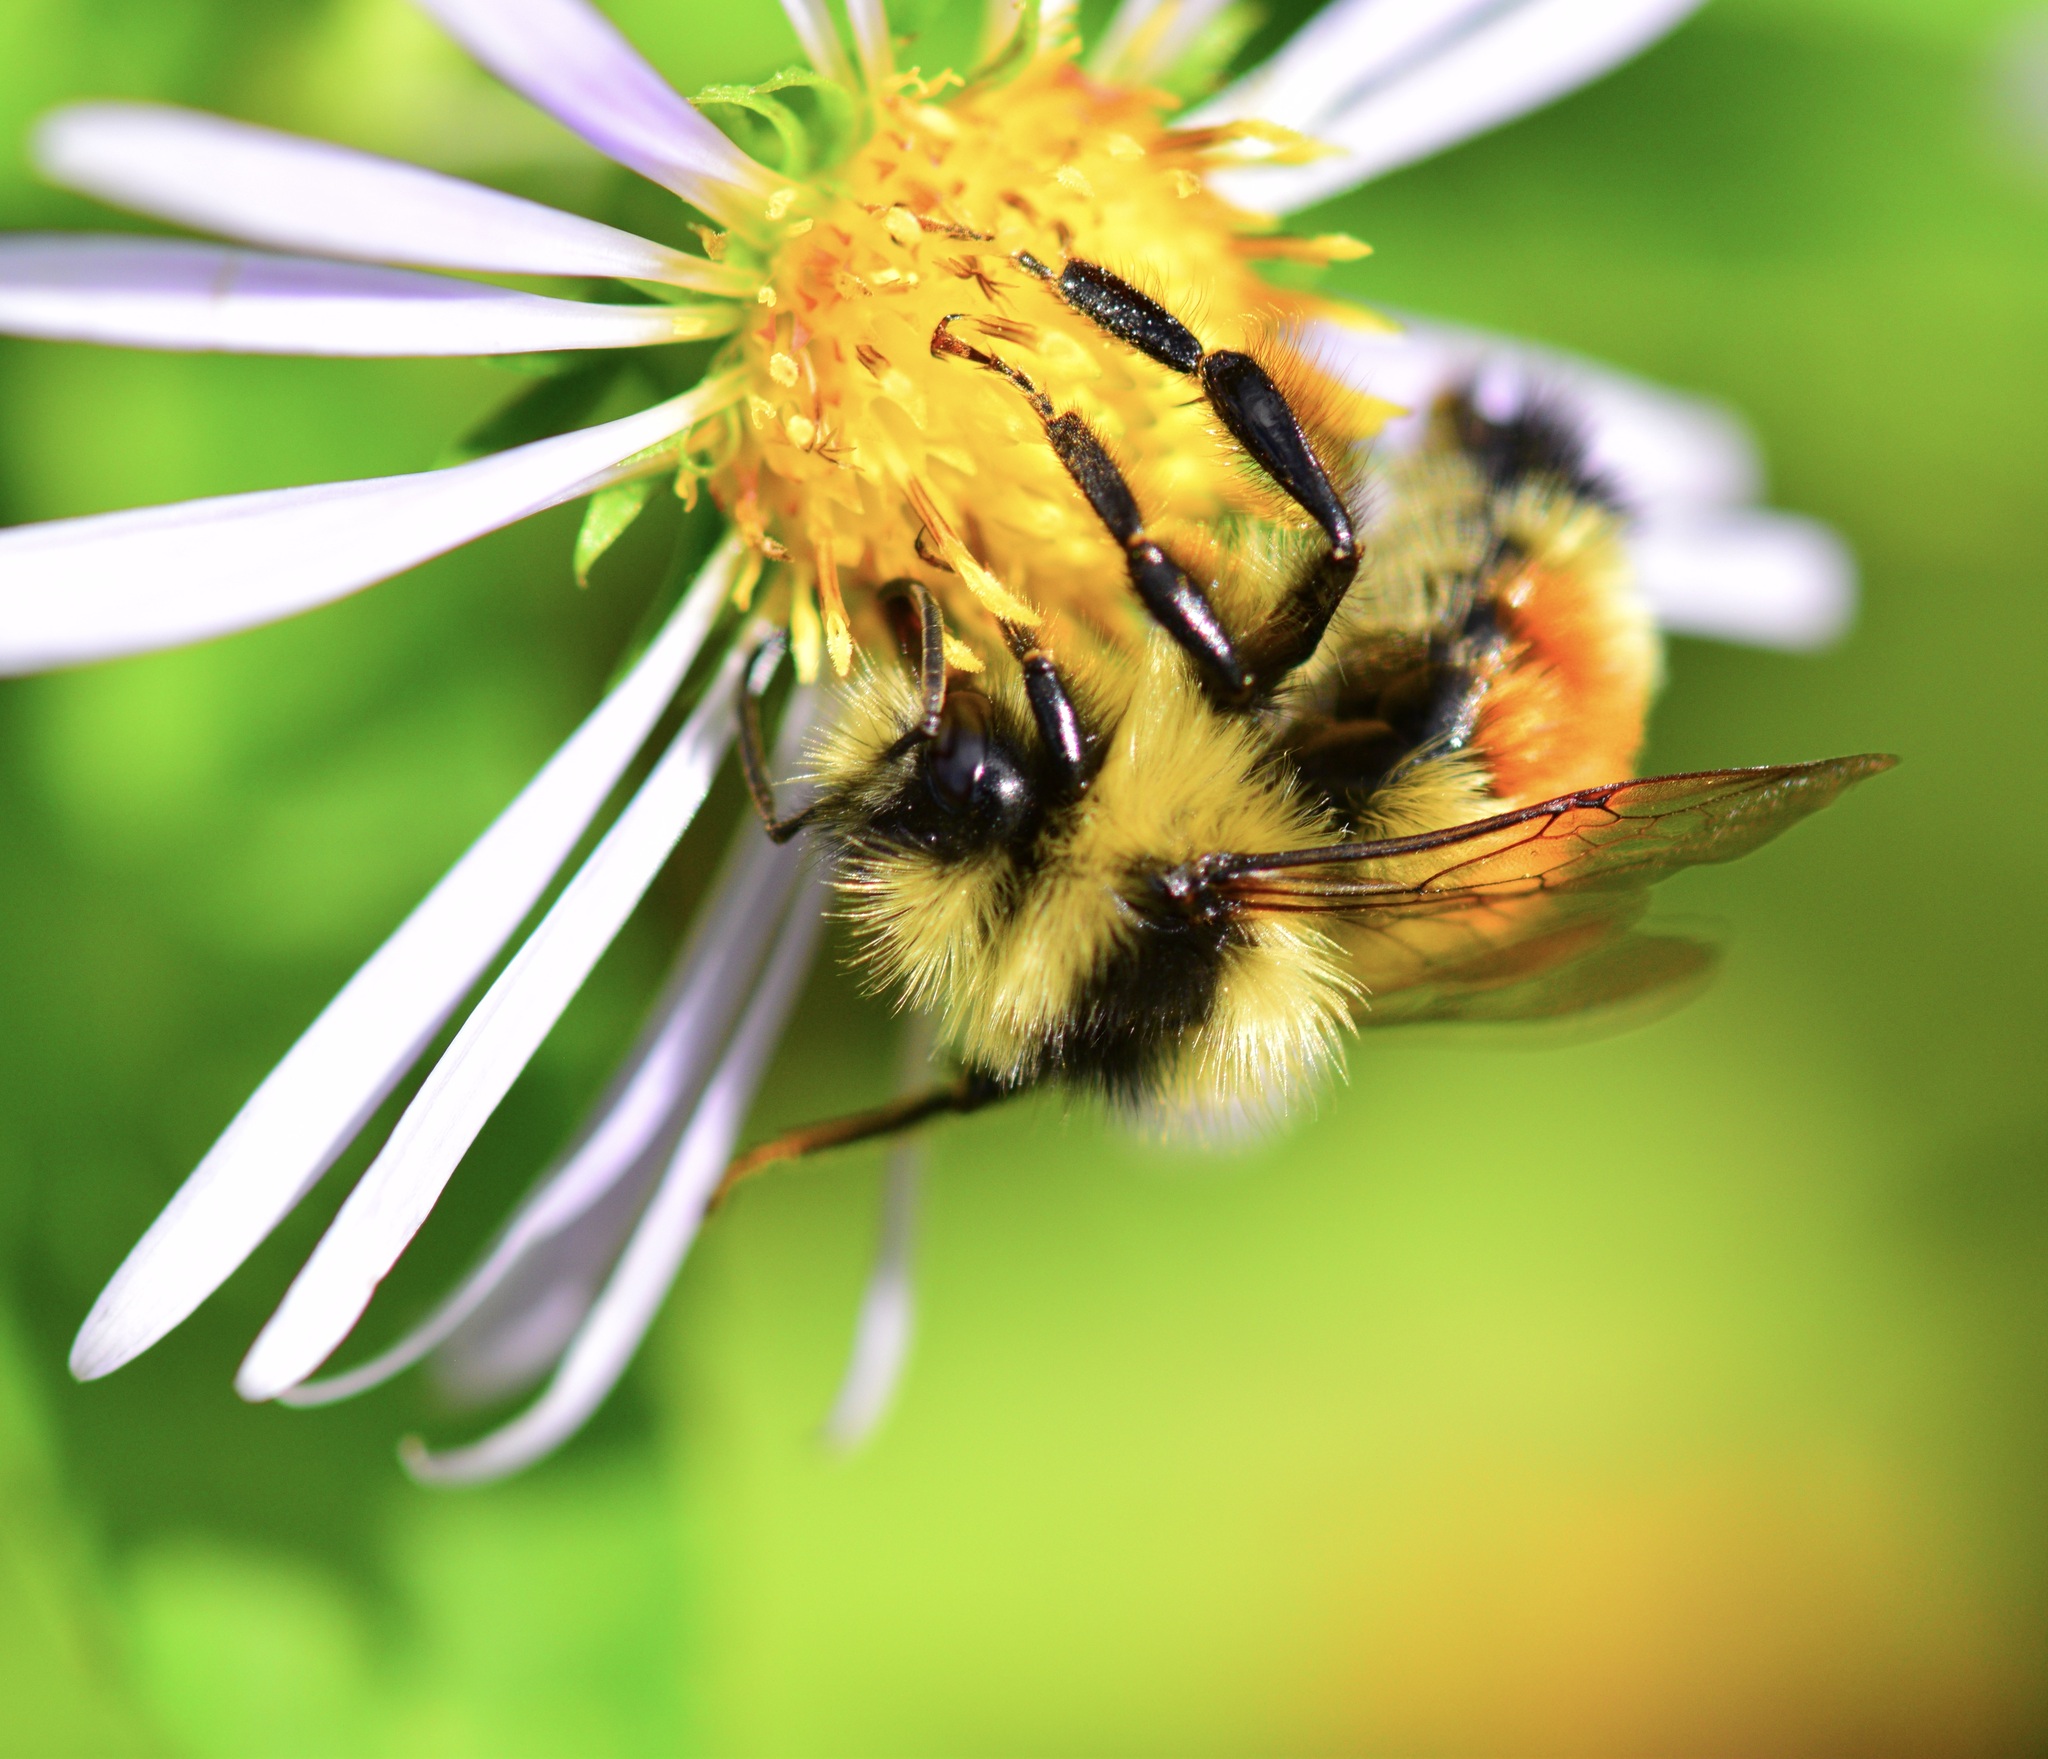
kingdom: Animalia
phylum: Arthropoda
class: Insecta
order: Hymenoptera
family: Apidae
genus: Bombus
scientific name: Bombus ternarius
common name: Tri-colored bumble bee
